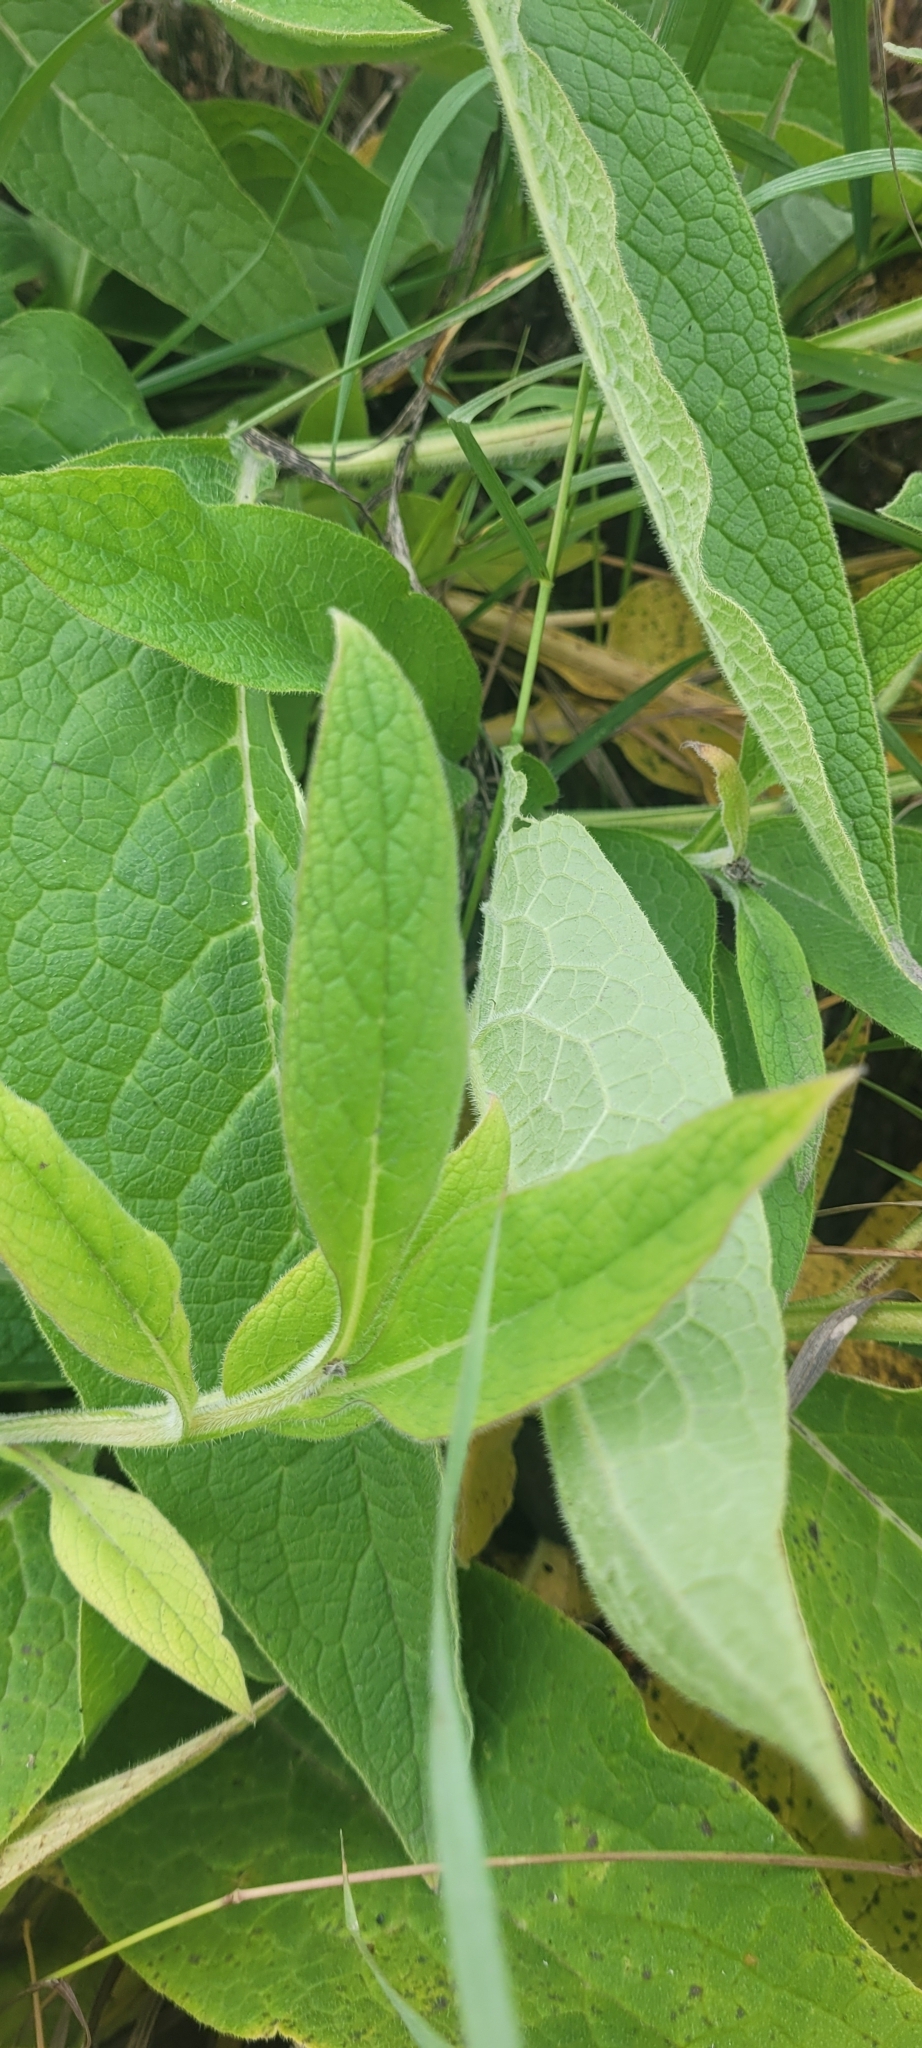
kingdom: Plantae
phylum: Tracheophyta
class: Magnoliopsida
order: Boraginales
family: Boraginaceae
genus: Symphytum
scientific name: Symphytum officinale
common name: Common comfrey
